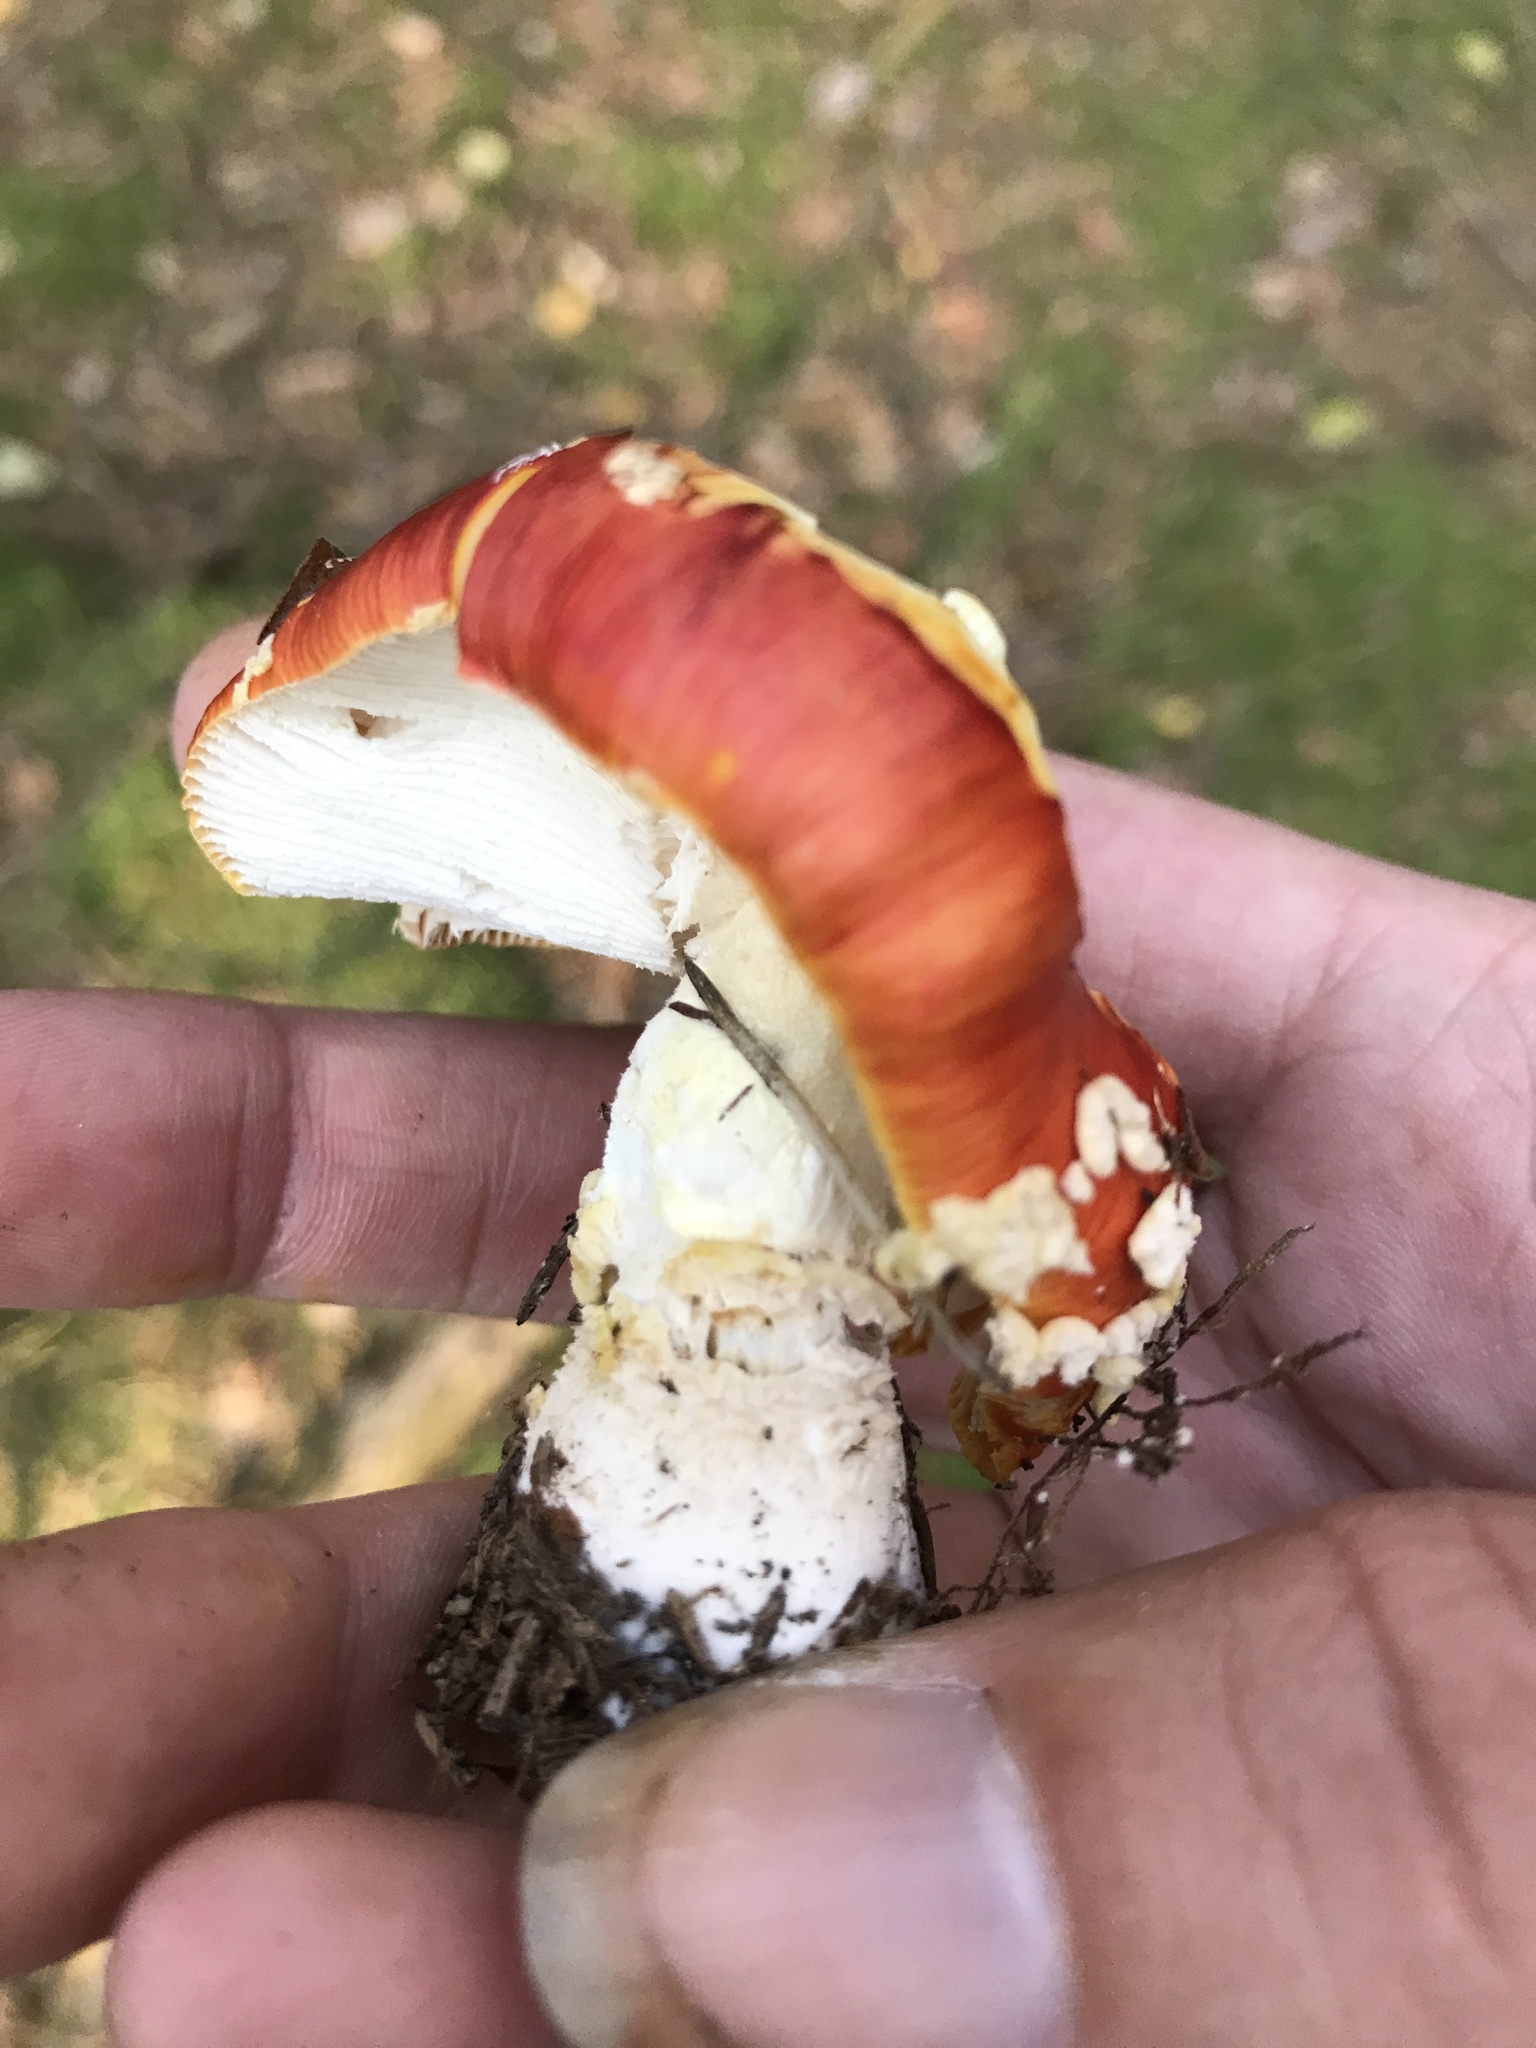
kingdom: Fungi
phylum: Basidiomycota
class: Agaricomycetes
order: Agaricales
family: Amanitaceae
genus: Amanita
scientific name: Amanita muscaria
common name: Fly agaric
